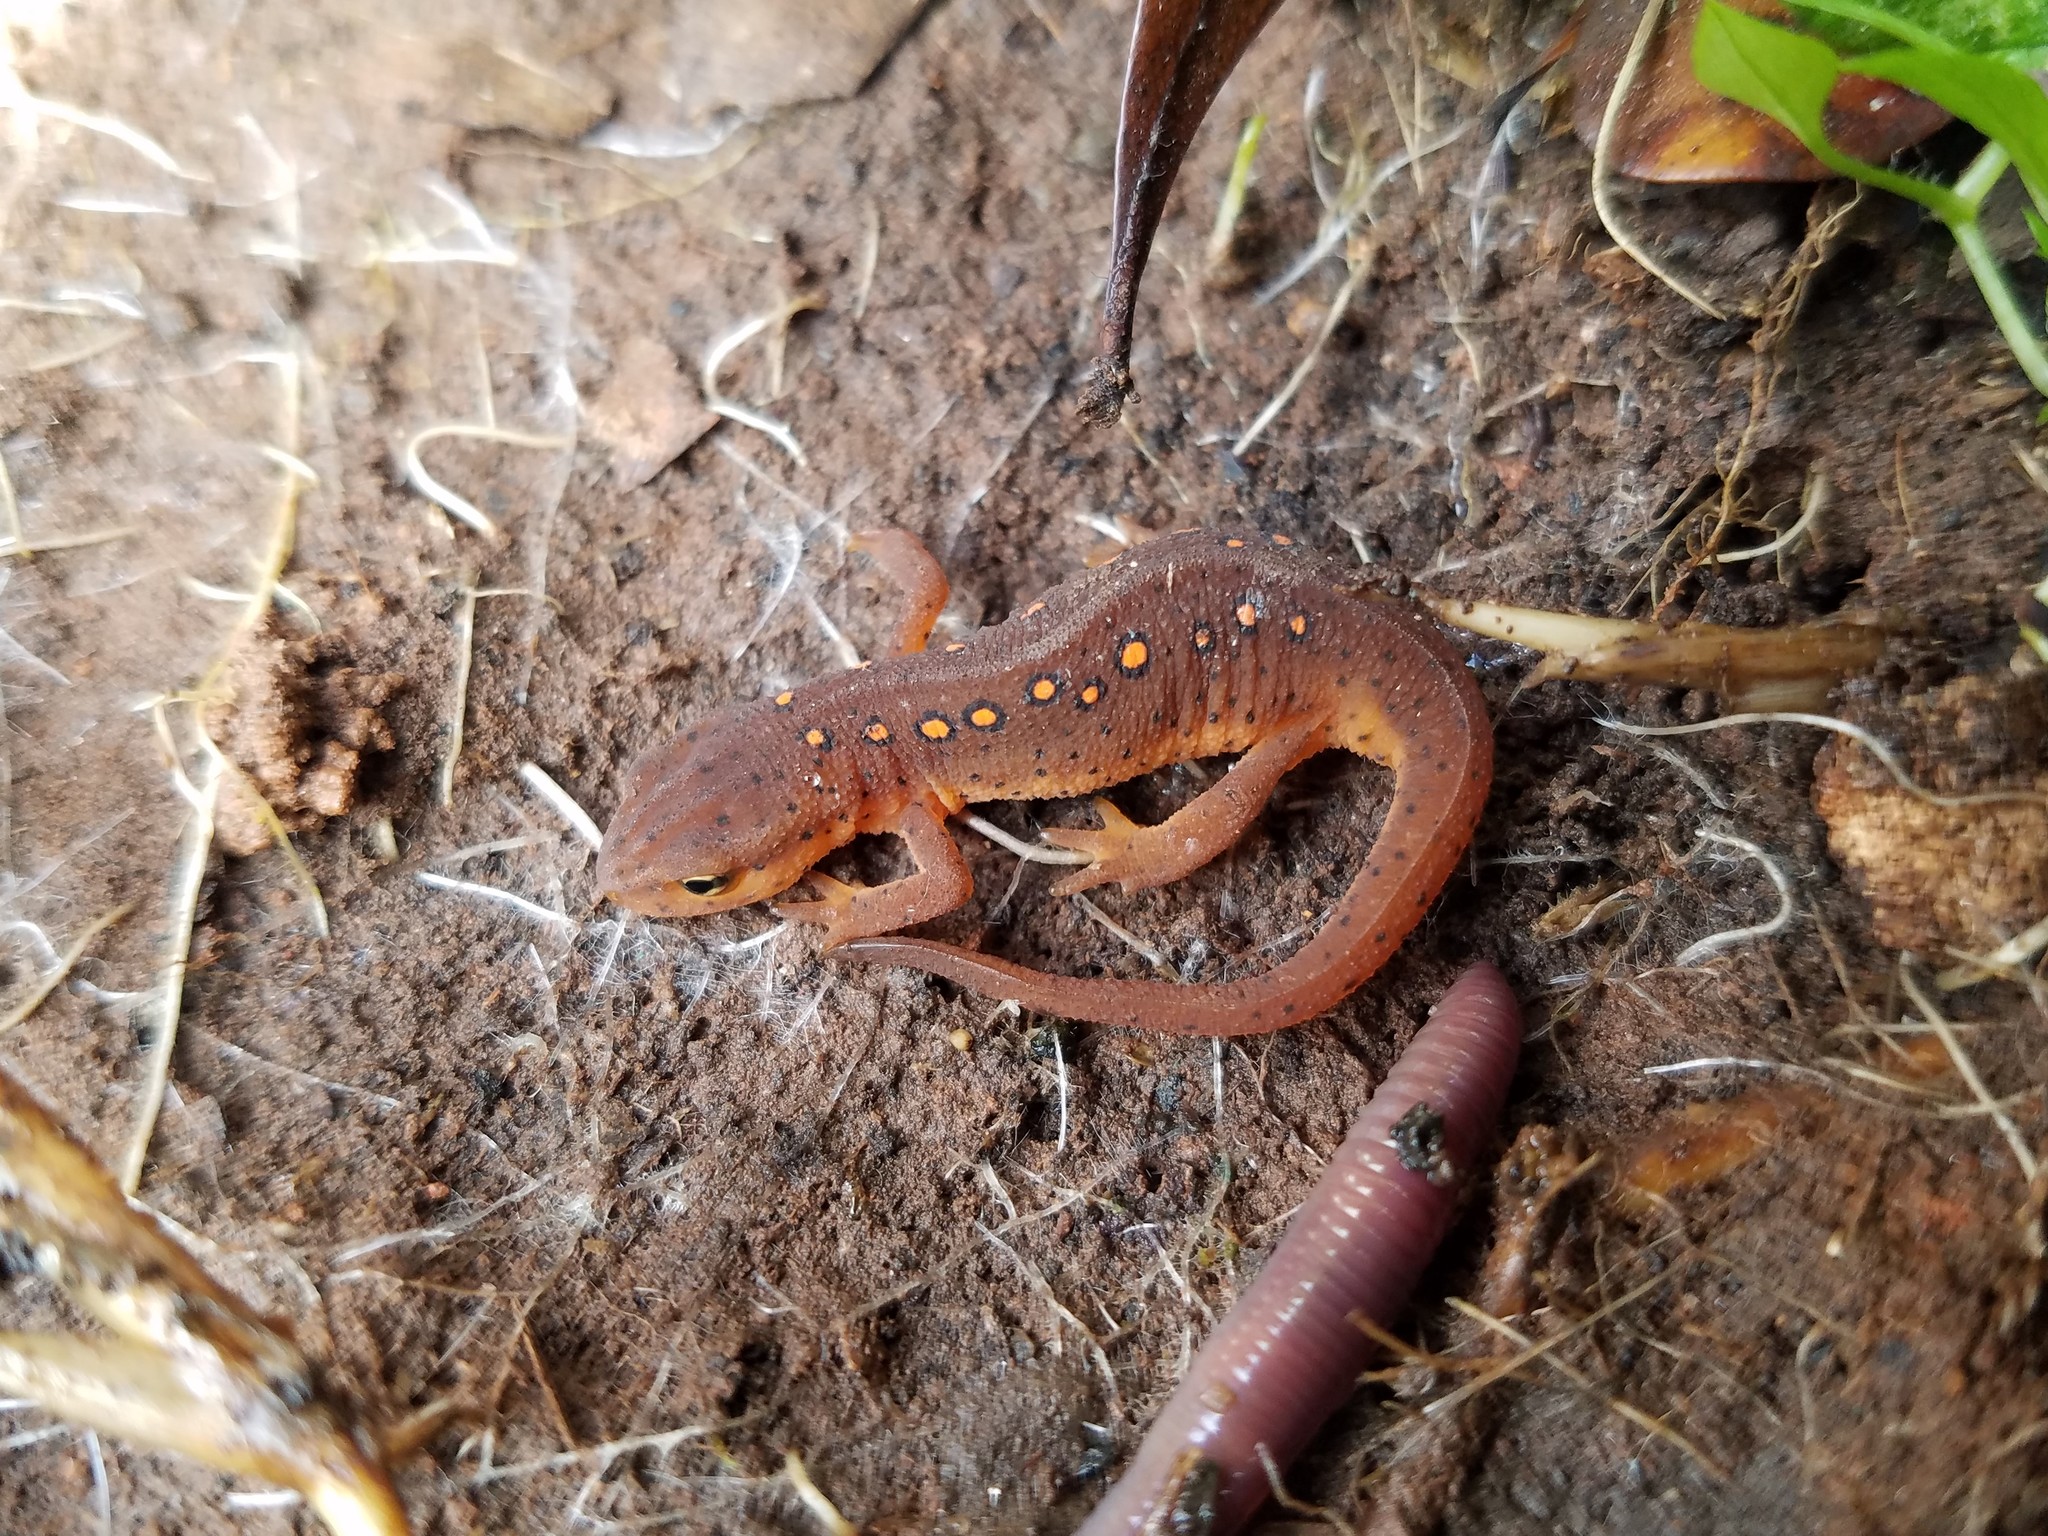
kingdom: Animalia
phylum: Chordata
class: Amphibia
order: Caudata
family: Salamandridae
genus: Notophthalmus
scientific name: Notophthalmus viridescens
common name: Eastern newt
